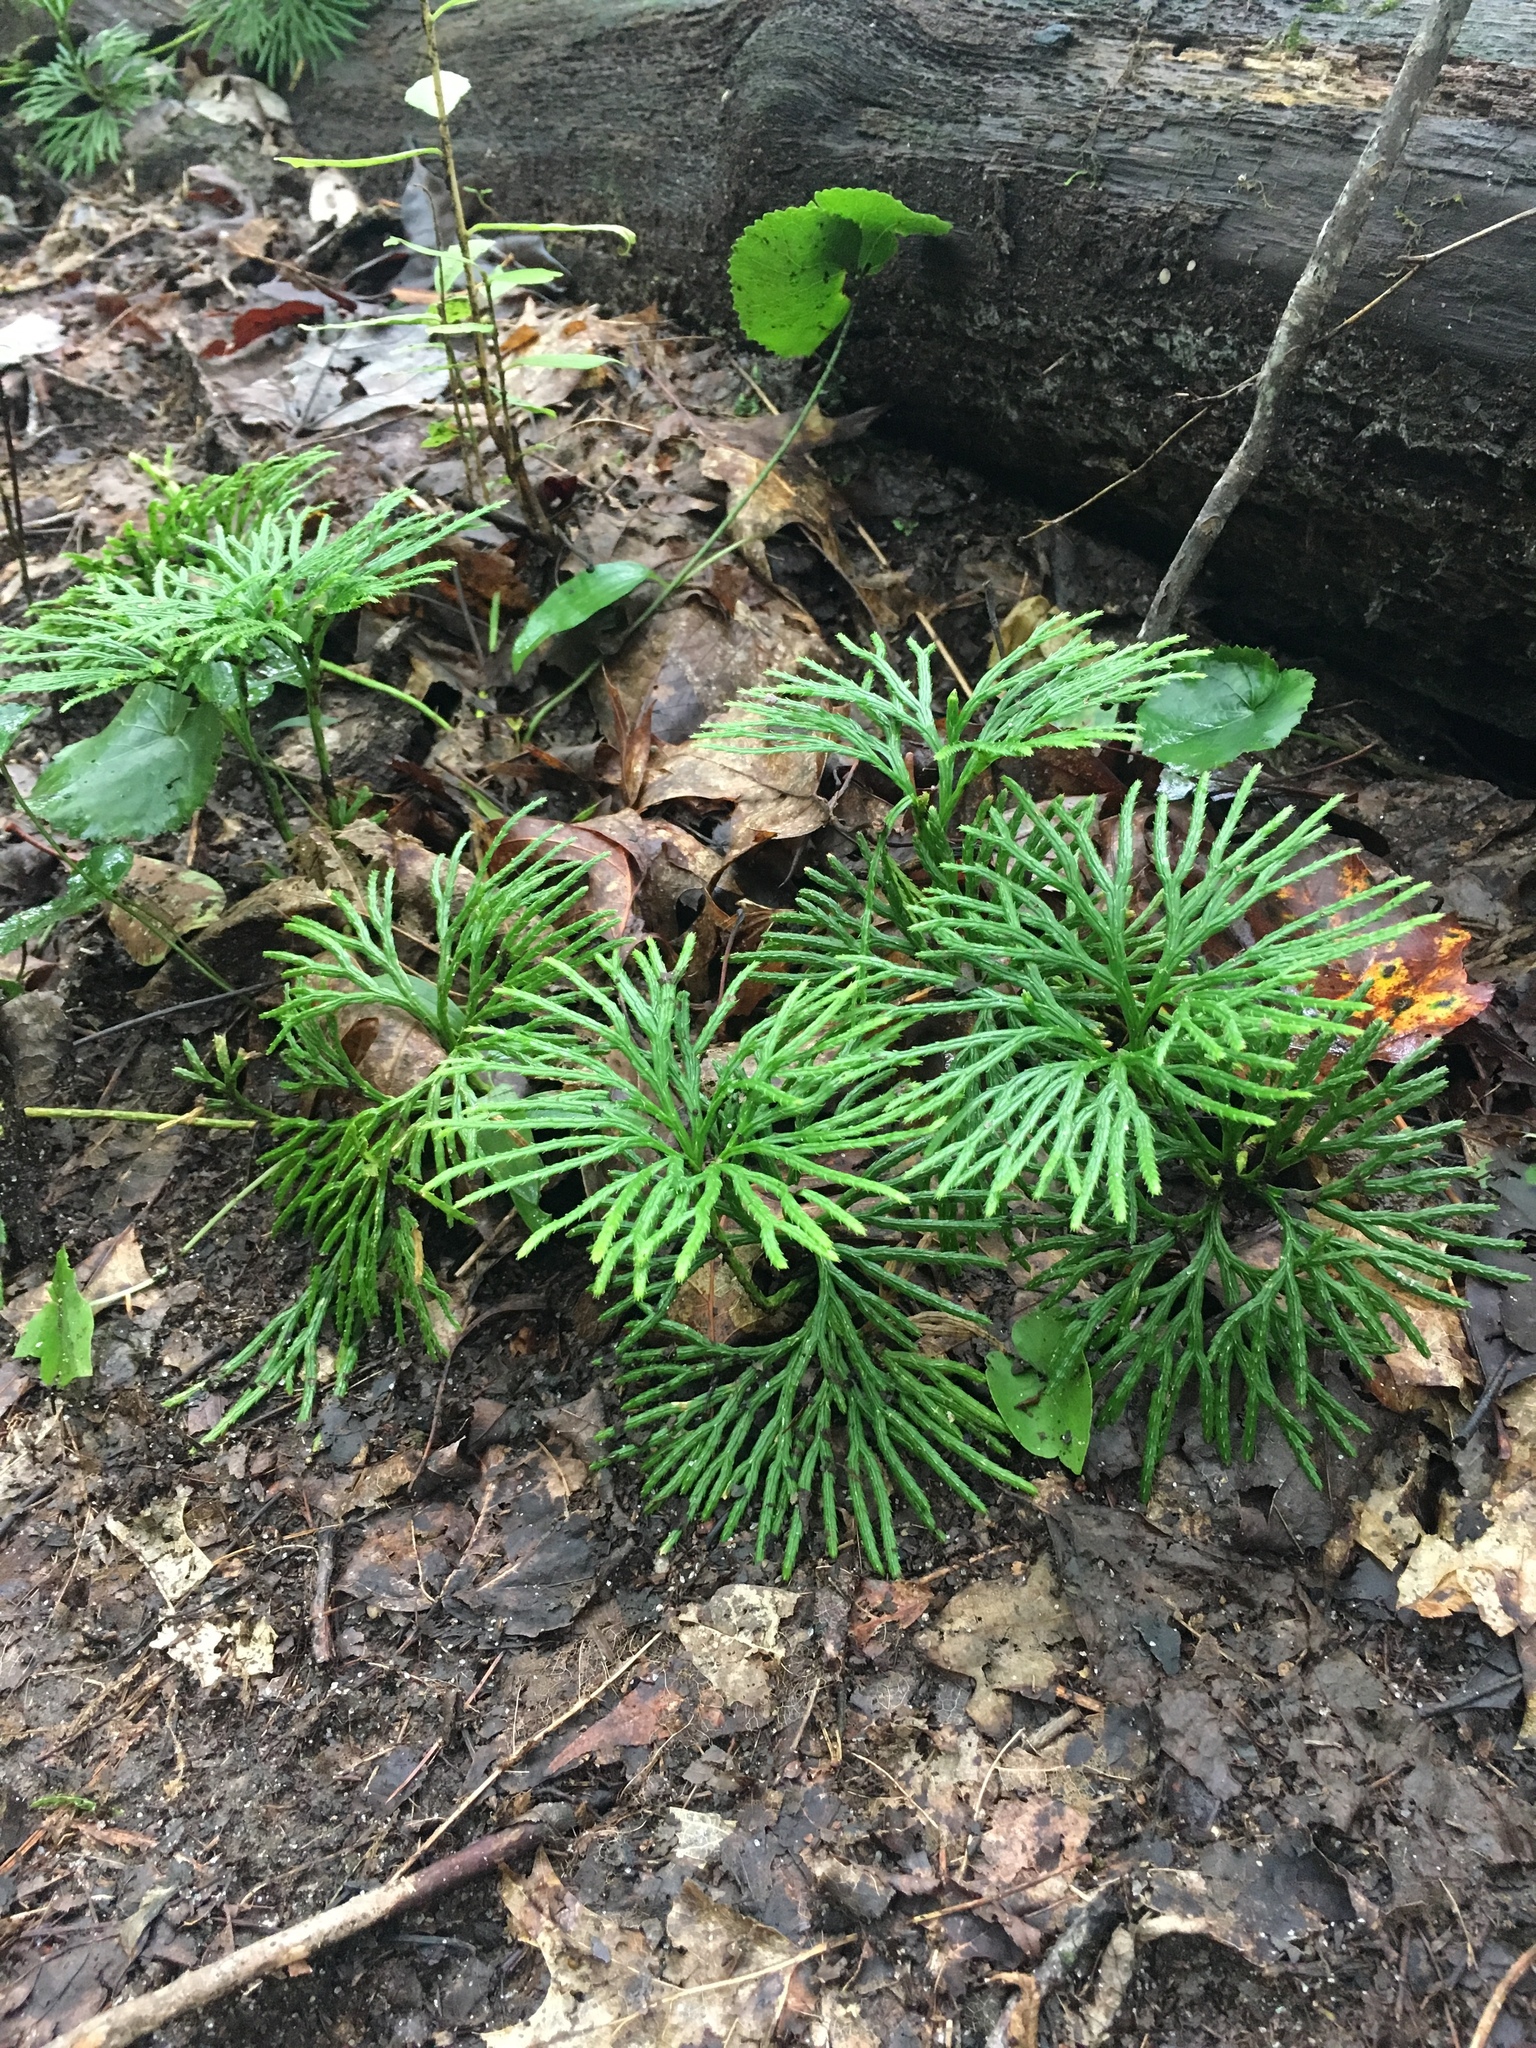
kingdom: Plantae
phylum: Tracheophyta
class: Lycopodiopsida
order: Lycopodiales
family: Lycopodiaceae
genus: Diphasiastrum
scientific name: Diphasiastrum digitatum
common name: Southern running-pine
